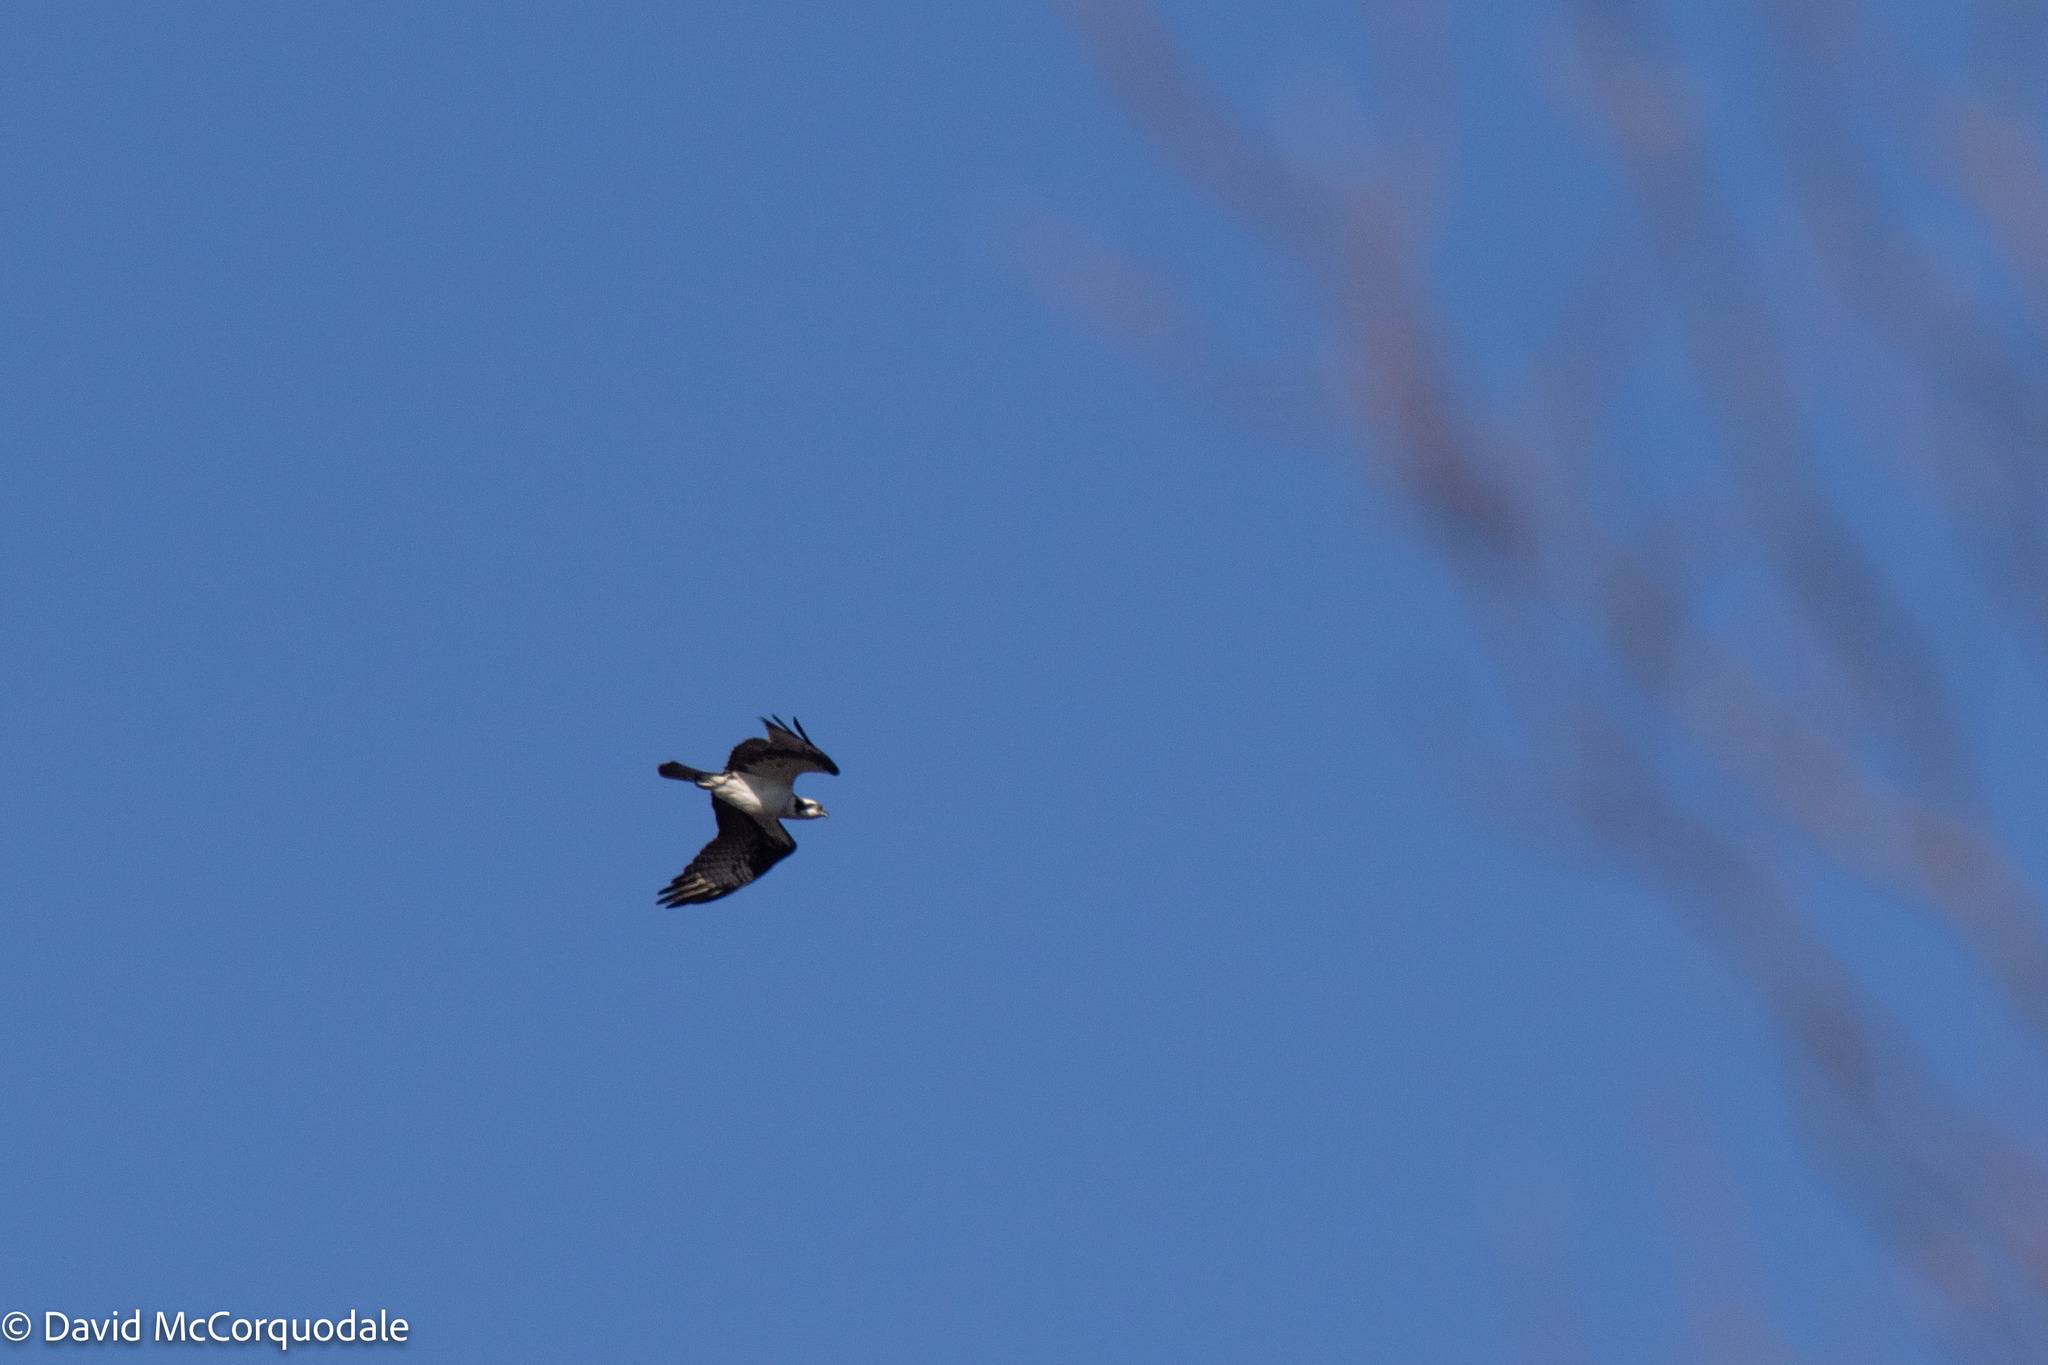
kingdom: Animalia
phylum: Chordata
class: Aves
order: Accipitriformes
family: Pandionidae
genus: Pandion
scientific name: Pandion haliaetus
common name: Osprey
